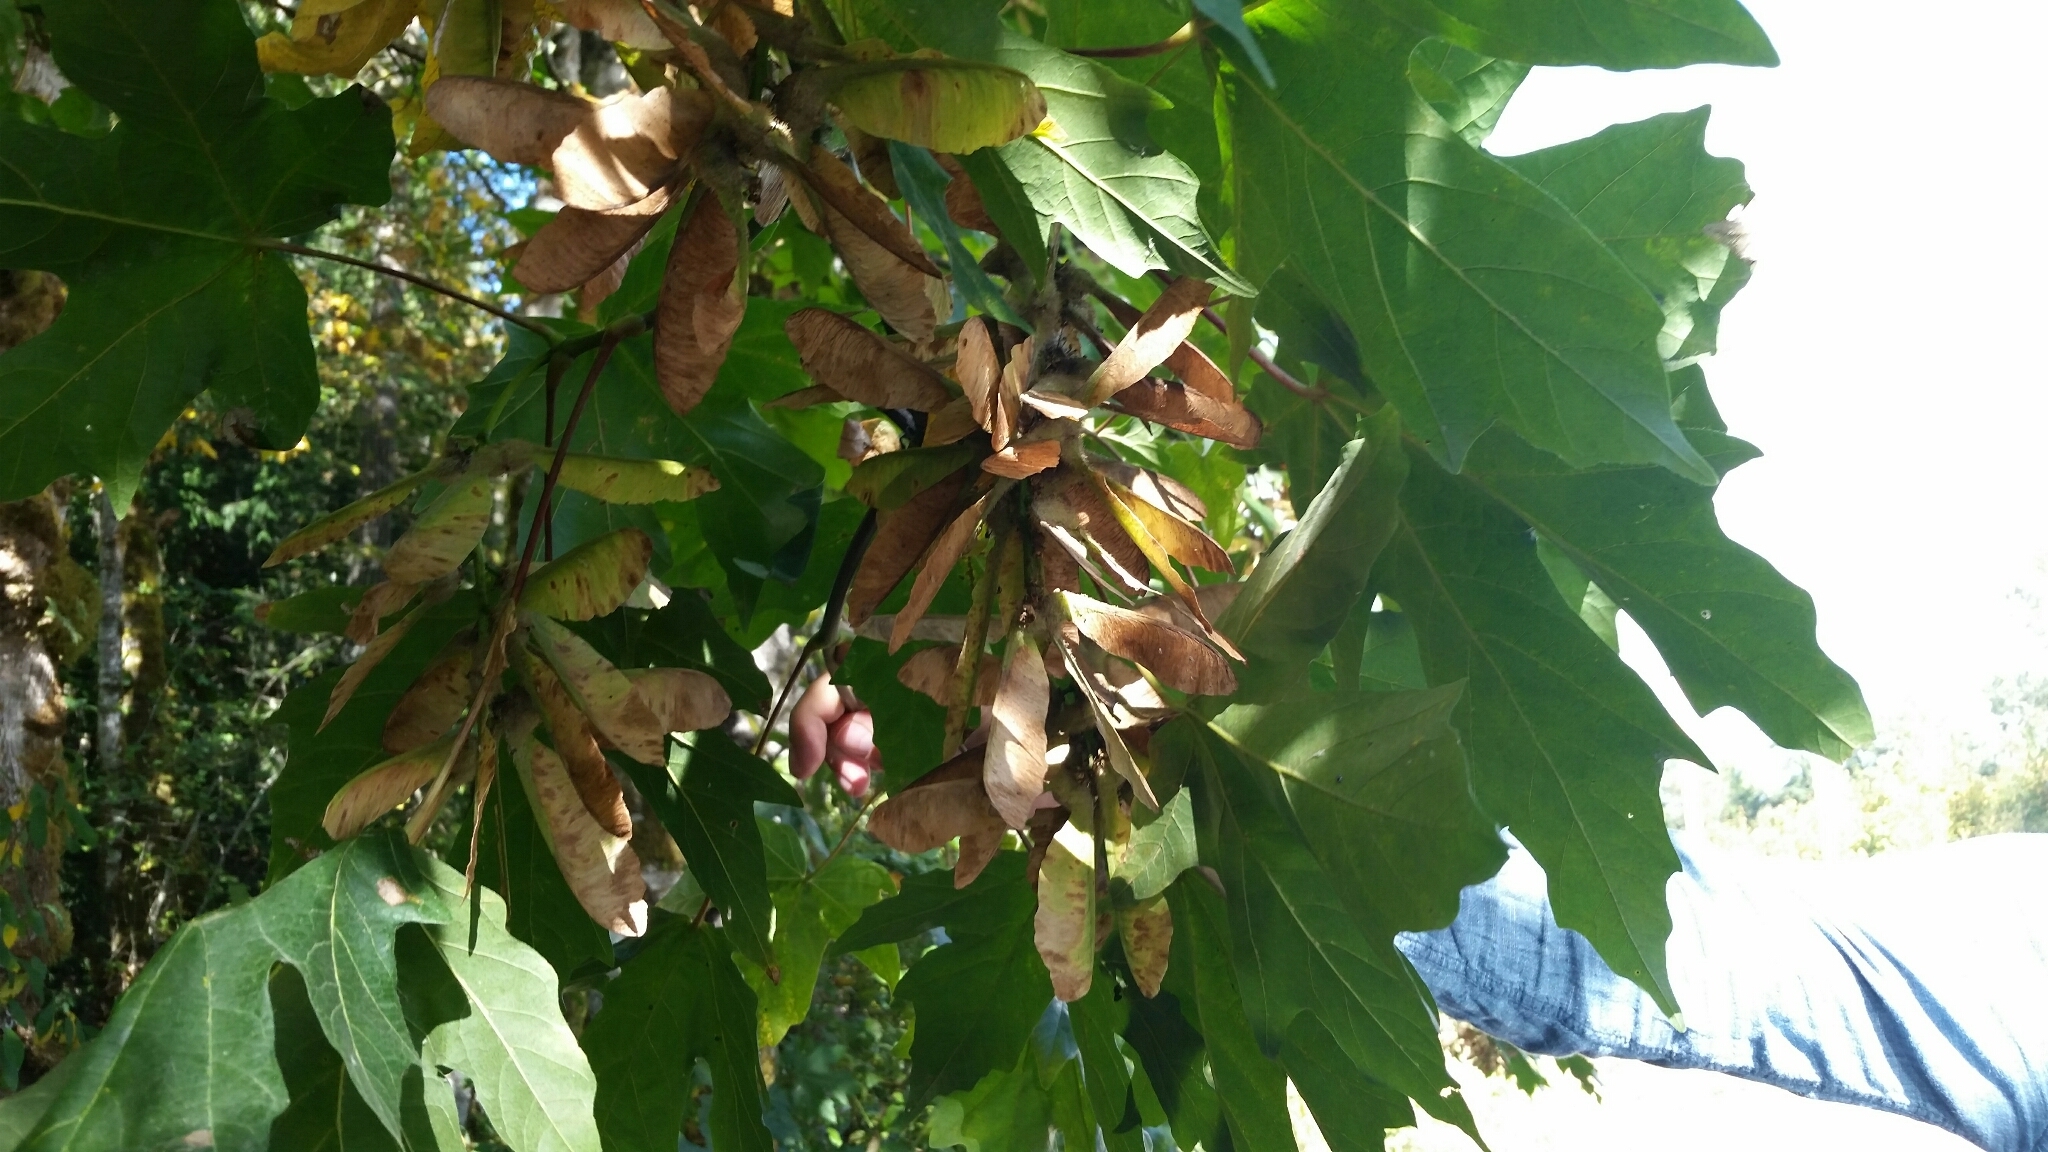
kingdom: Plantae
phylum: Tracheophyta
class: Magnoliopsida
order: Sapindales
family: Sapindaceae
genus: Acer
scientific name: Acer macrophyllum
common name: Oregon maple
